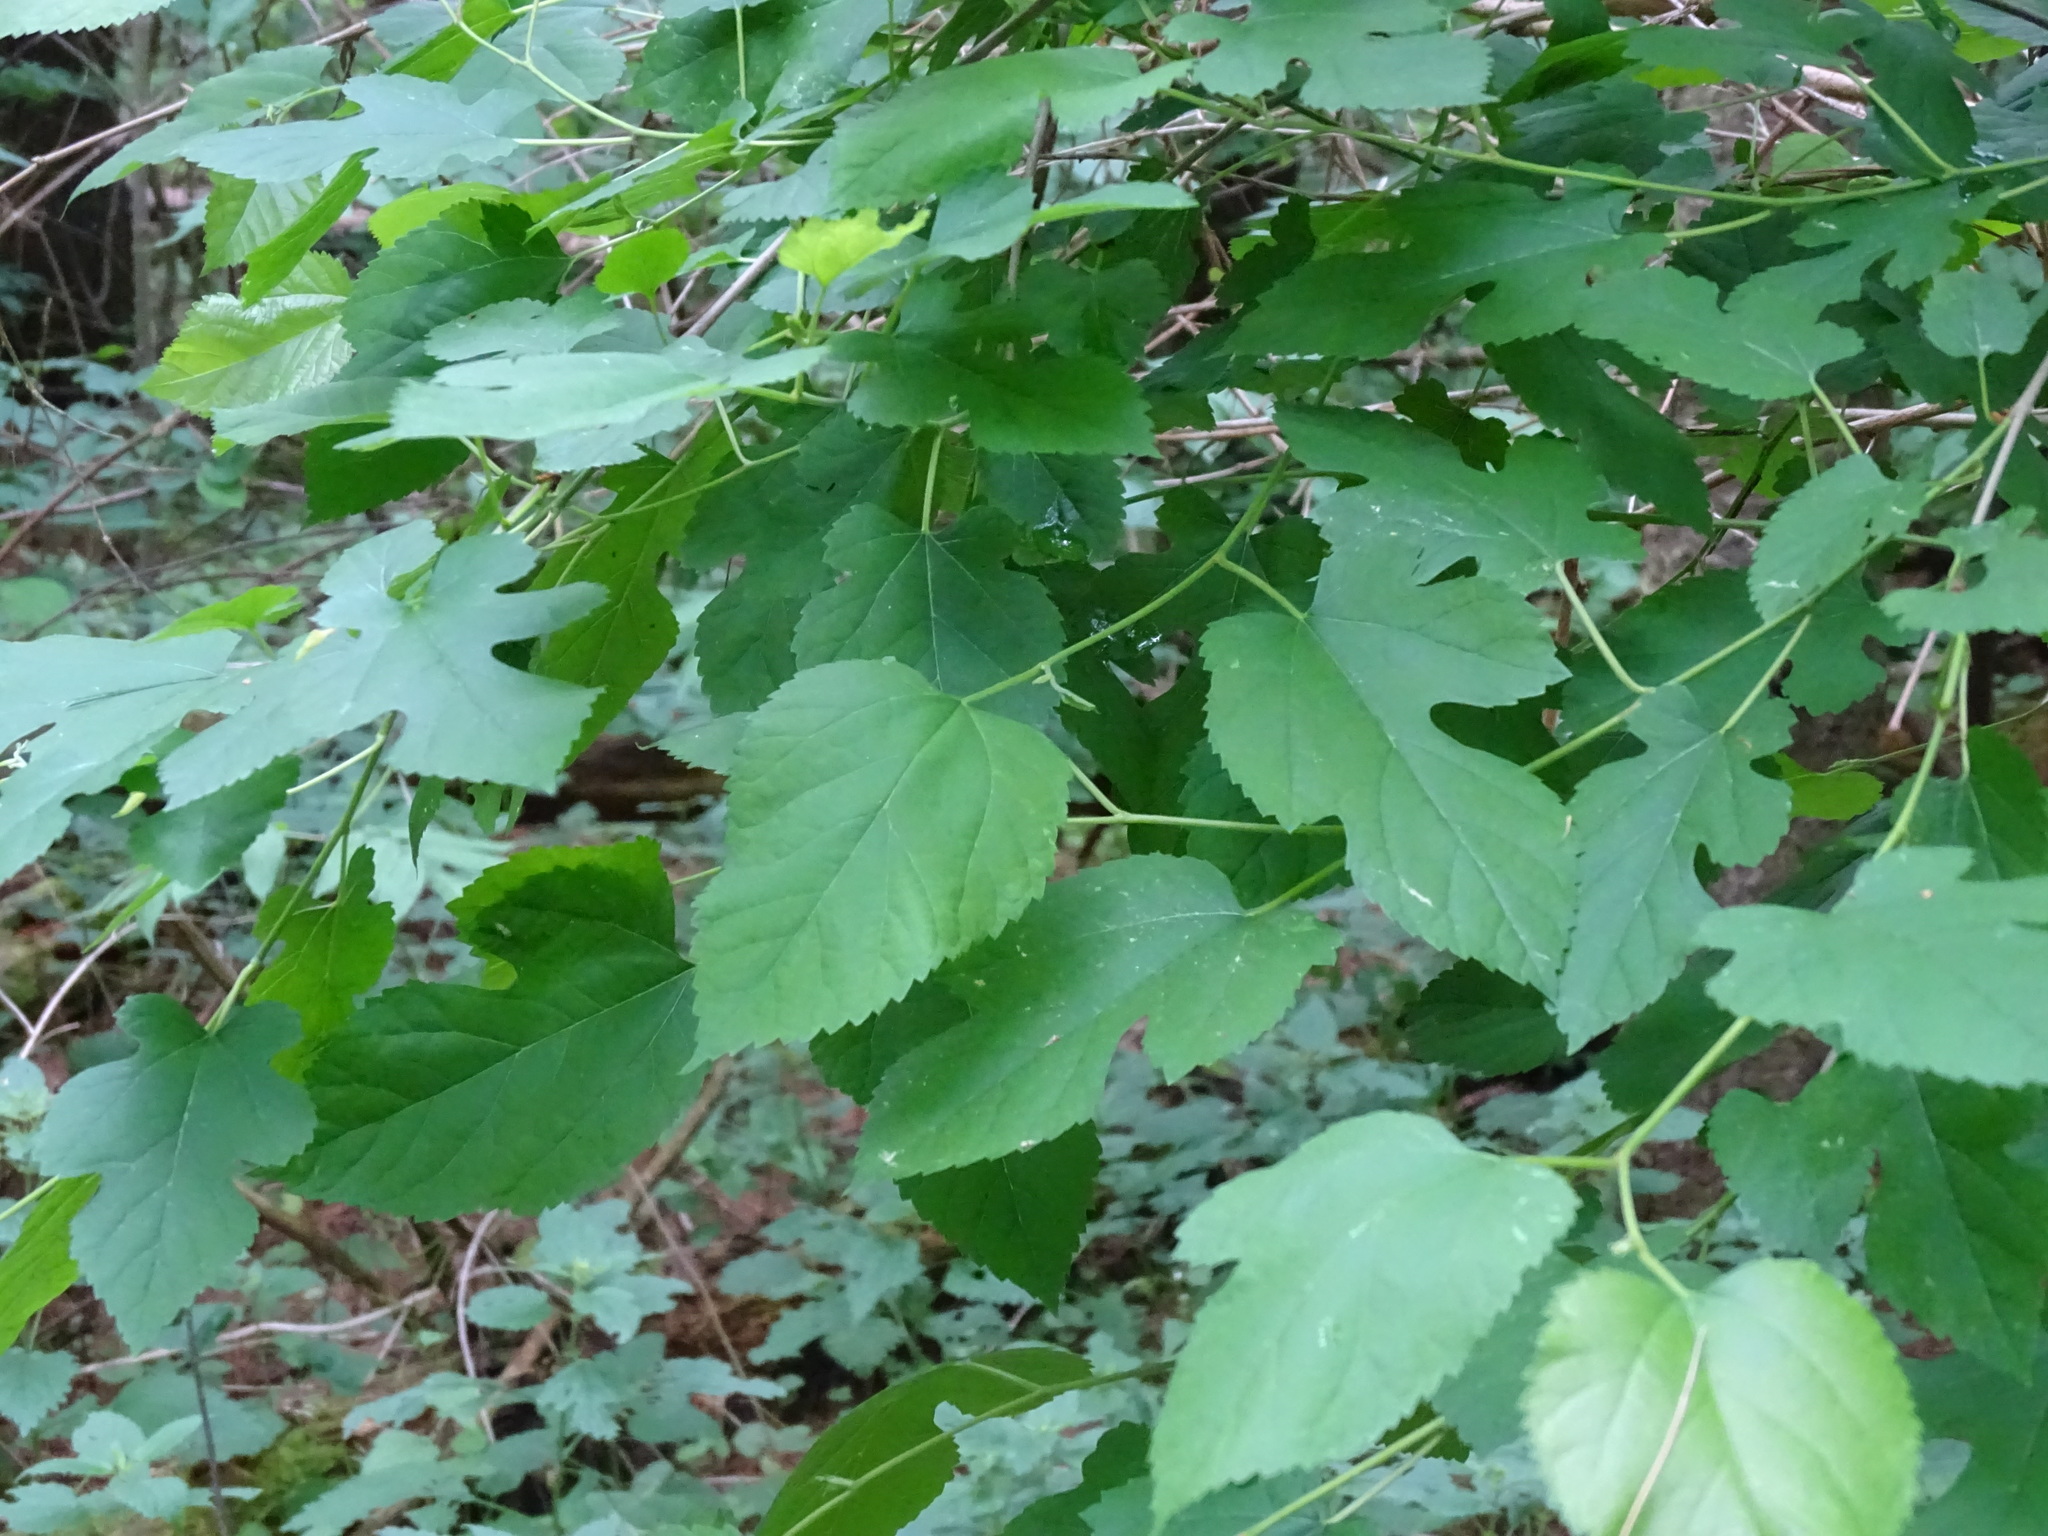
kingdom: Plantae
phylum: Tracheophyta
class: Magnoliopsida
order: Rosales
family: Moraceae
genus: Morus
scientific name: Morus alba
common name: White mulberry
